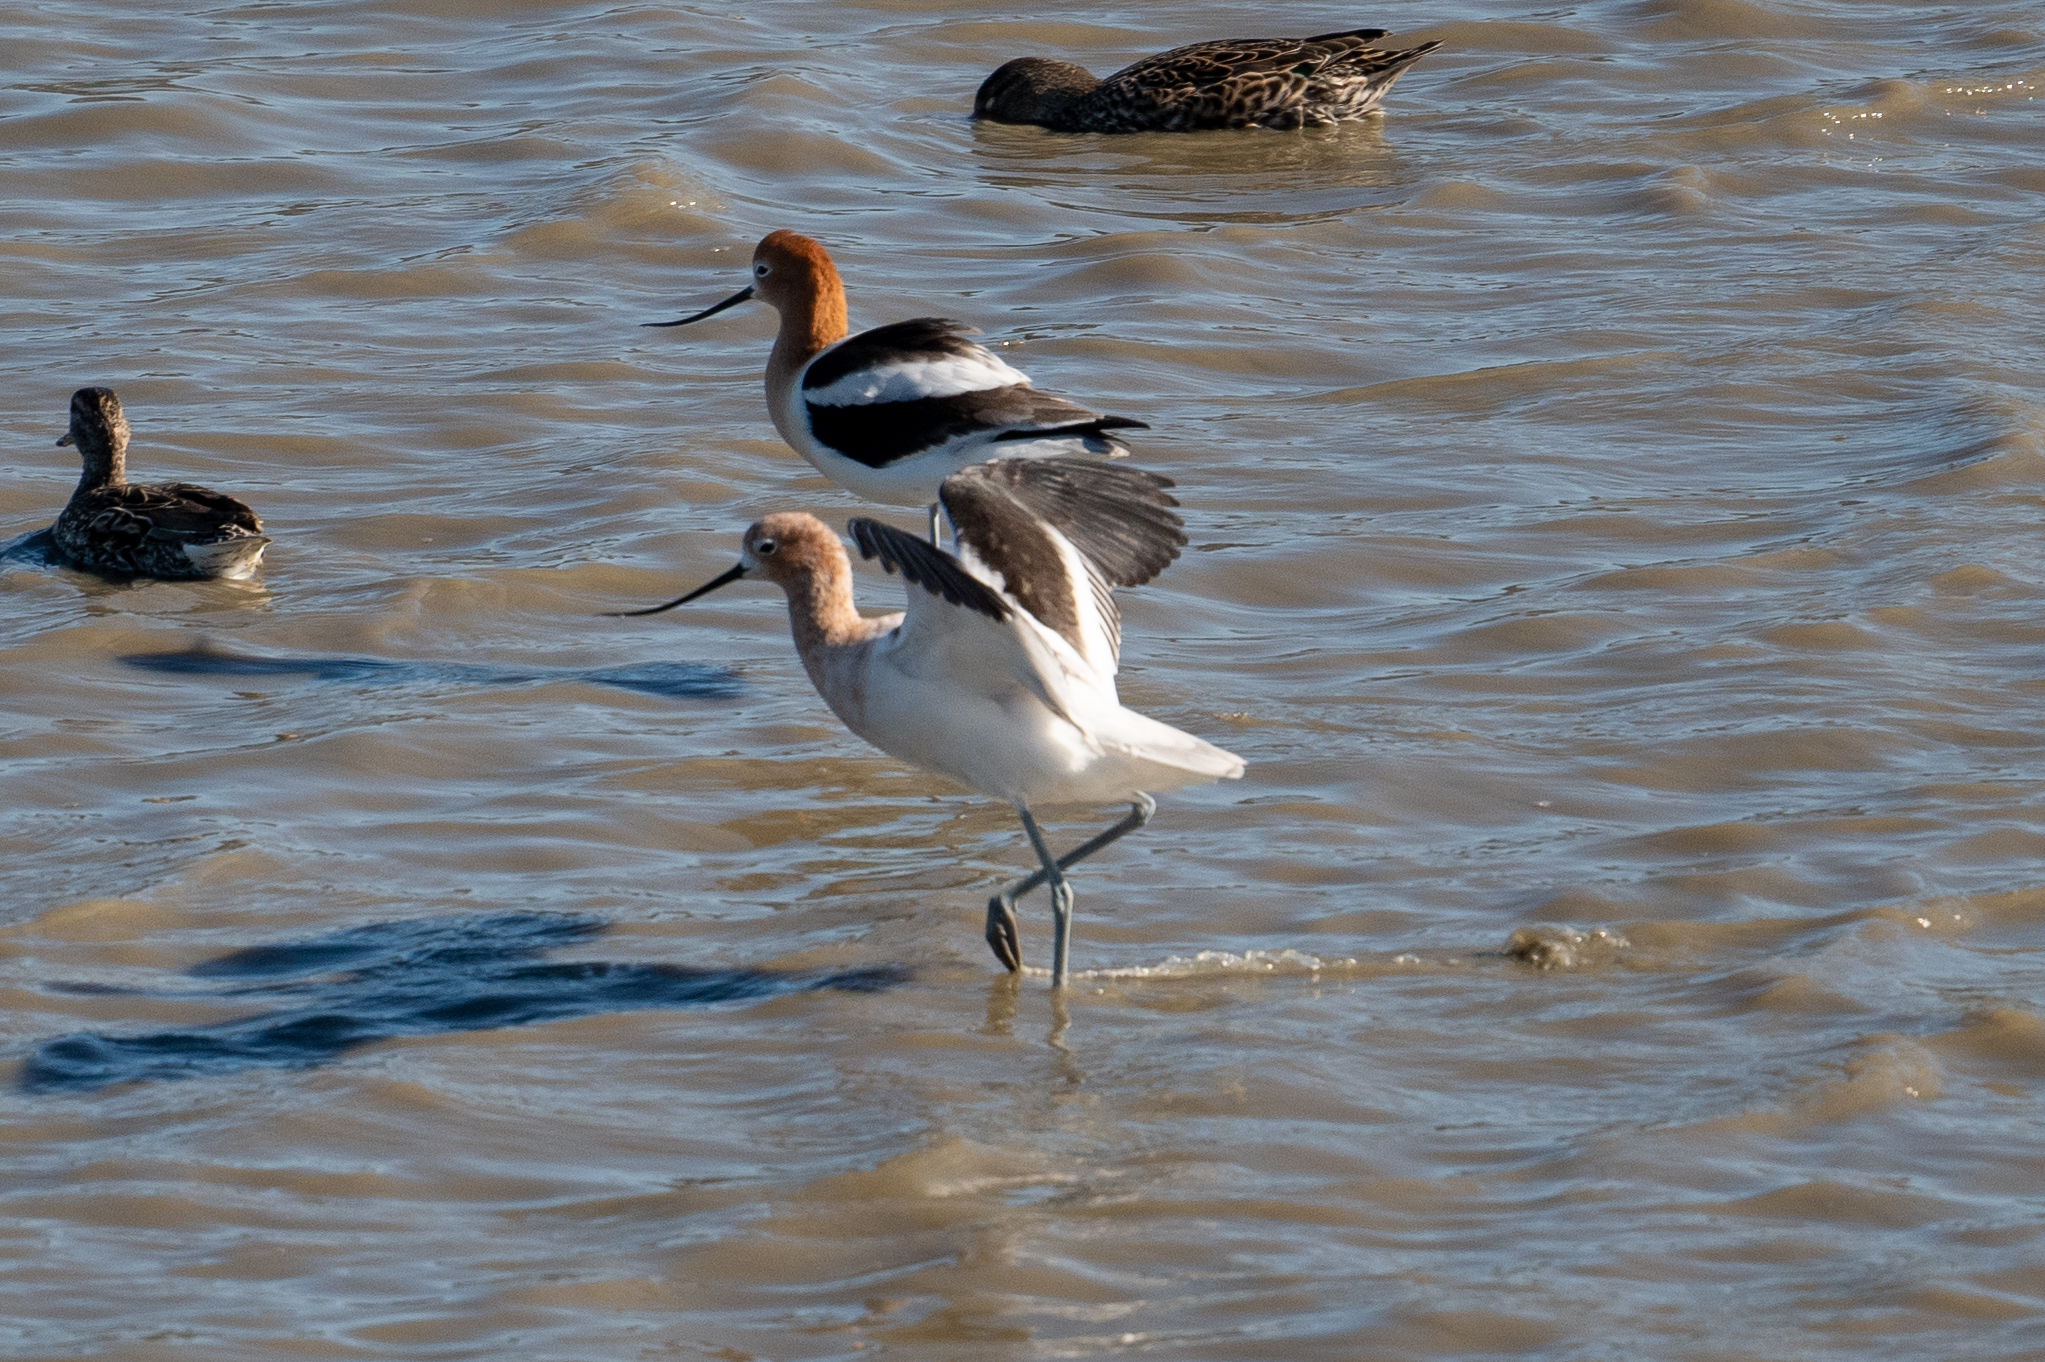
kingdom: Animalia
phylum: Chordata
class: Aves
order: Charadriiformes
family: Recurvirostridae
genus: Recurvirostra
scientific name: Recurvirostra americana
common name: American avocet
